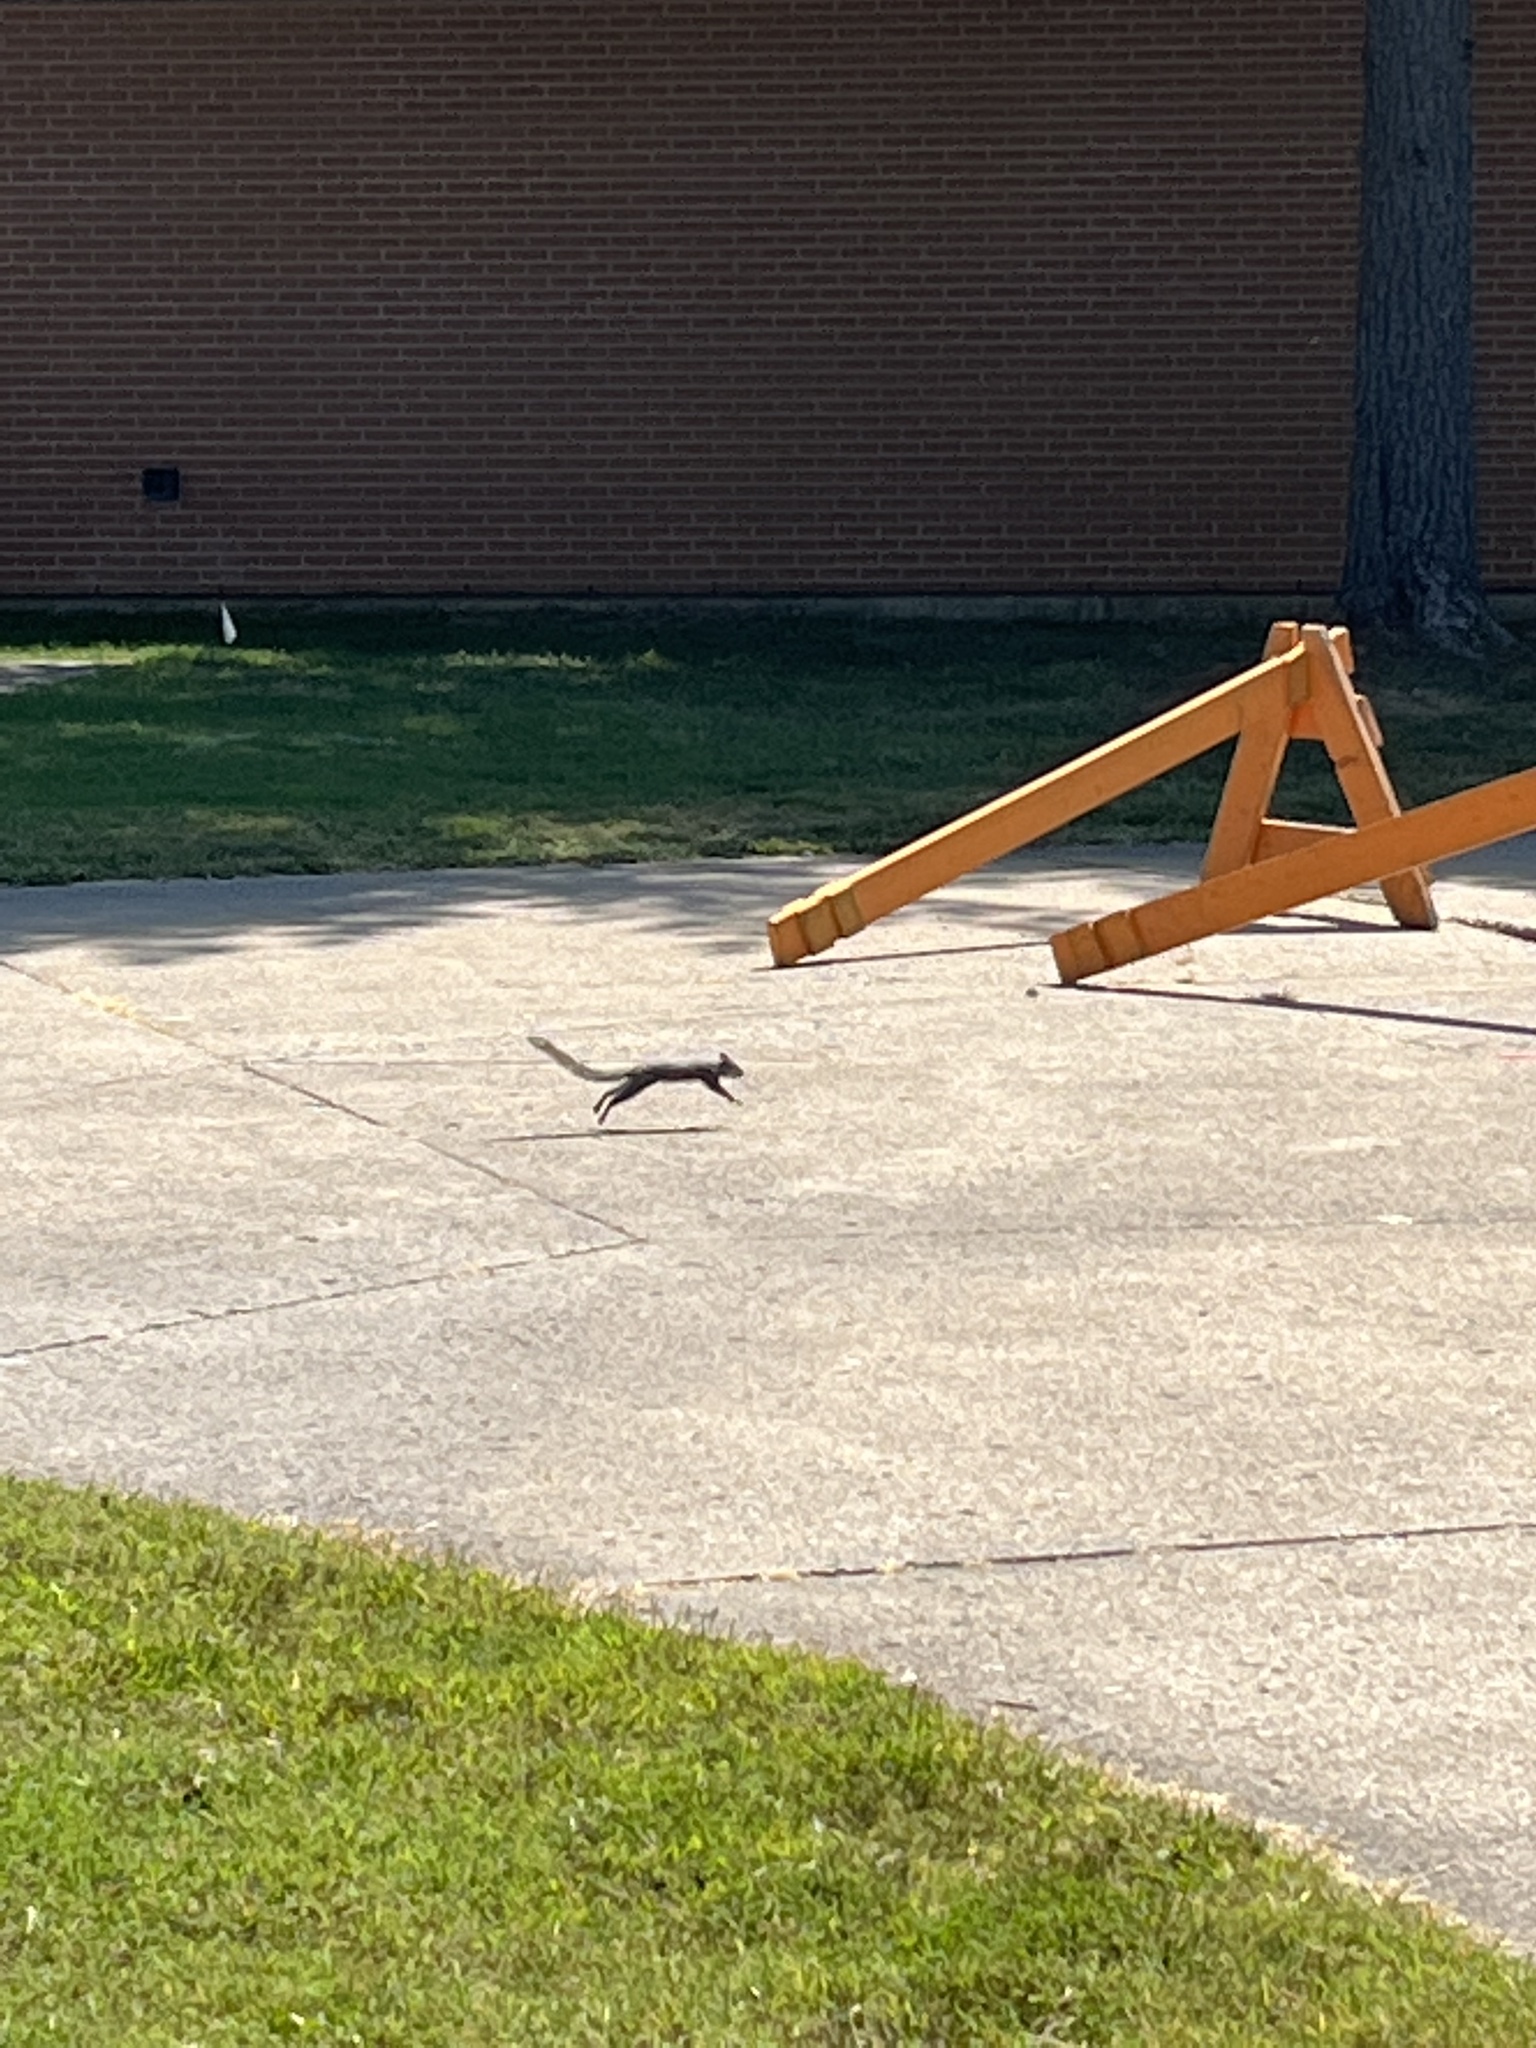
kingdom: Animalia
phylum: Chordata
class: Mammalia
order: Rodentia
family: Sciuridae
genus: Sciurus
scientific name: Sciurus carolinensis
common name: Eastern gray squirrel
